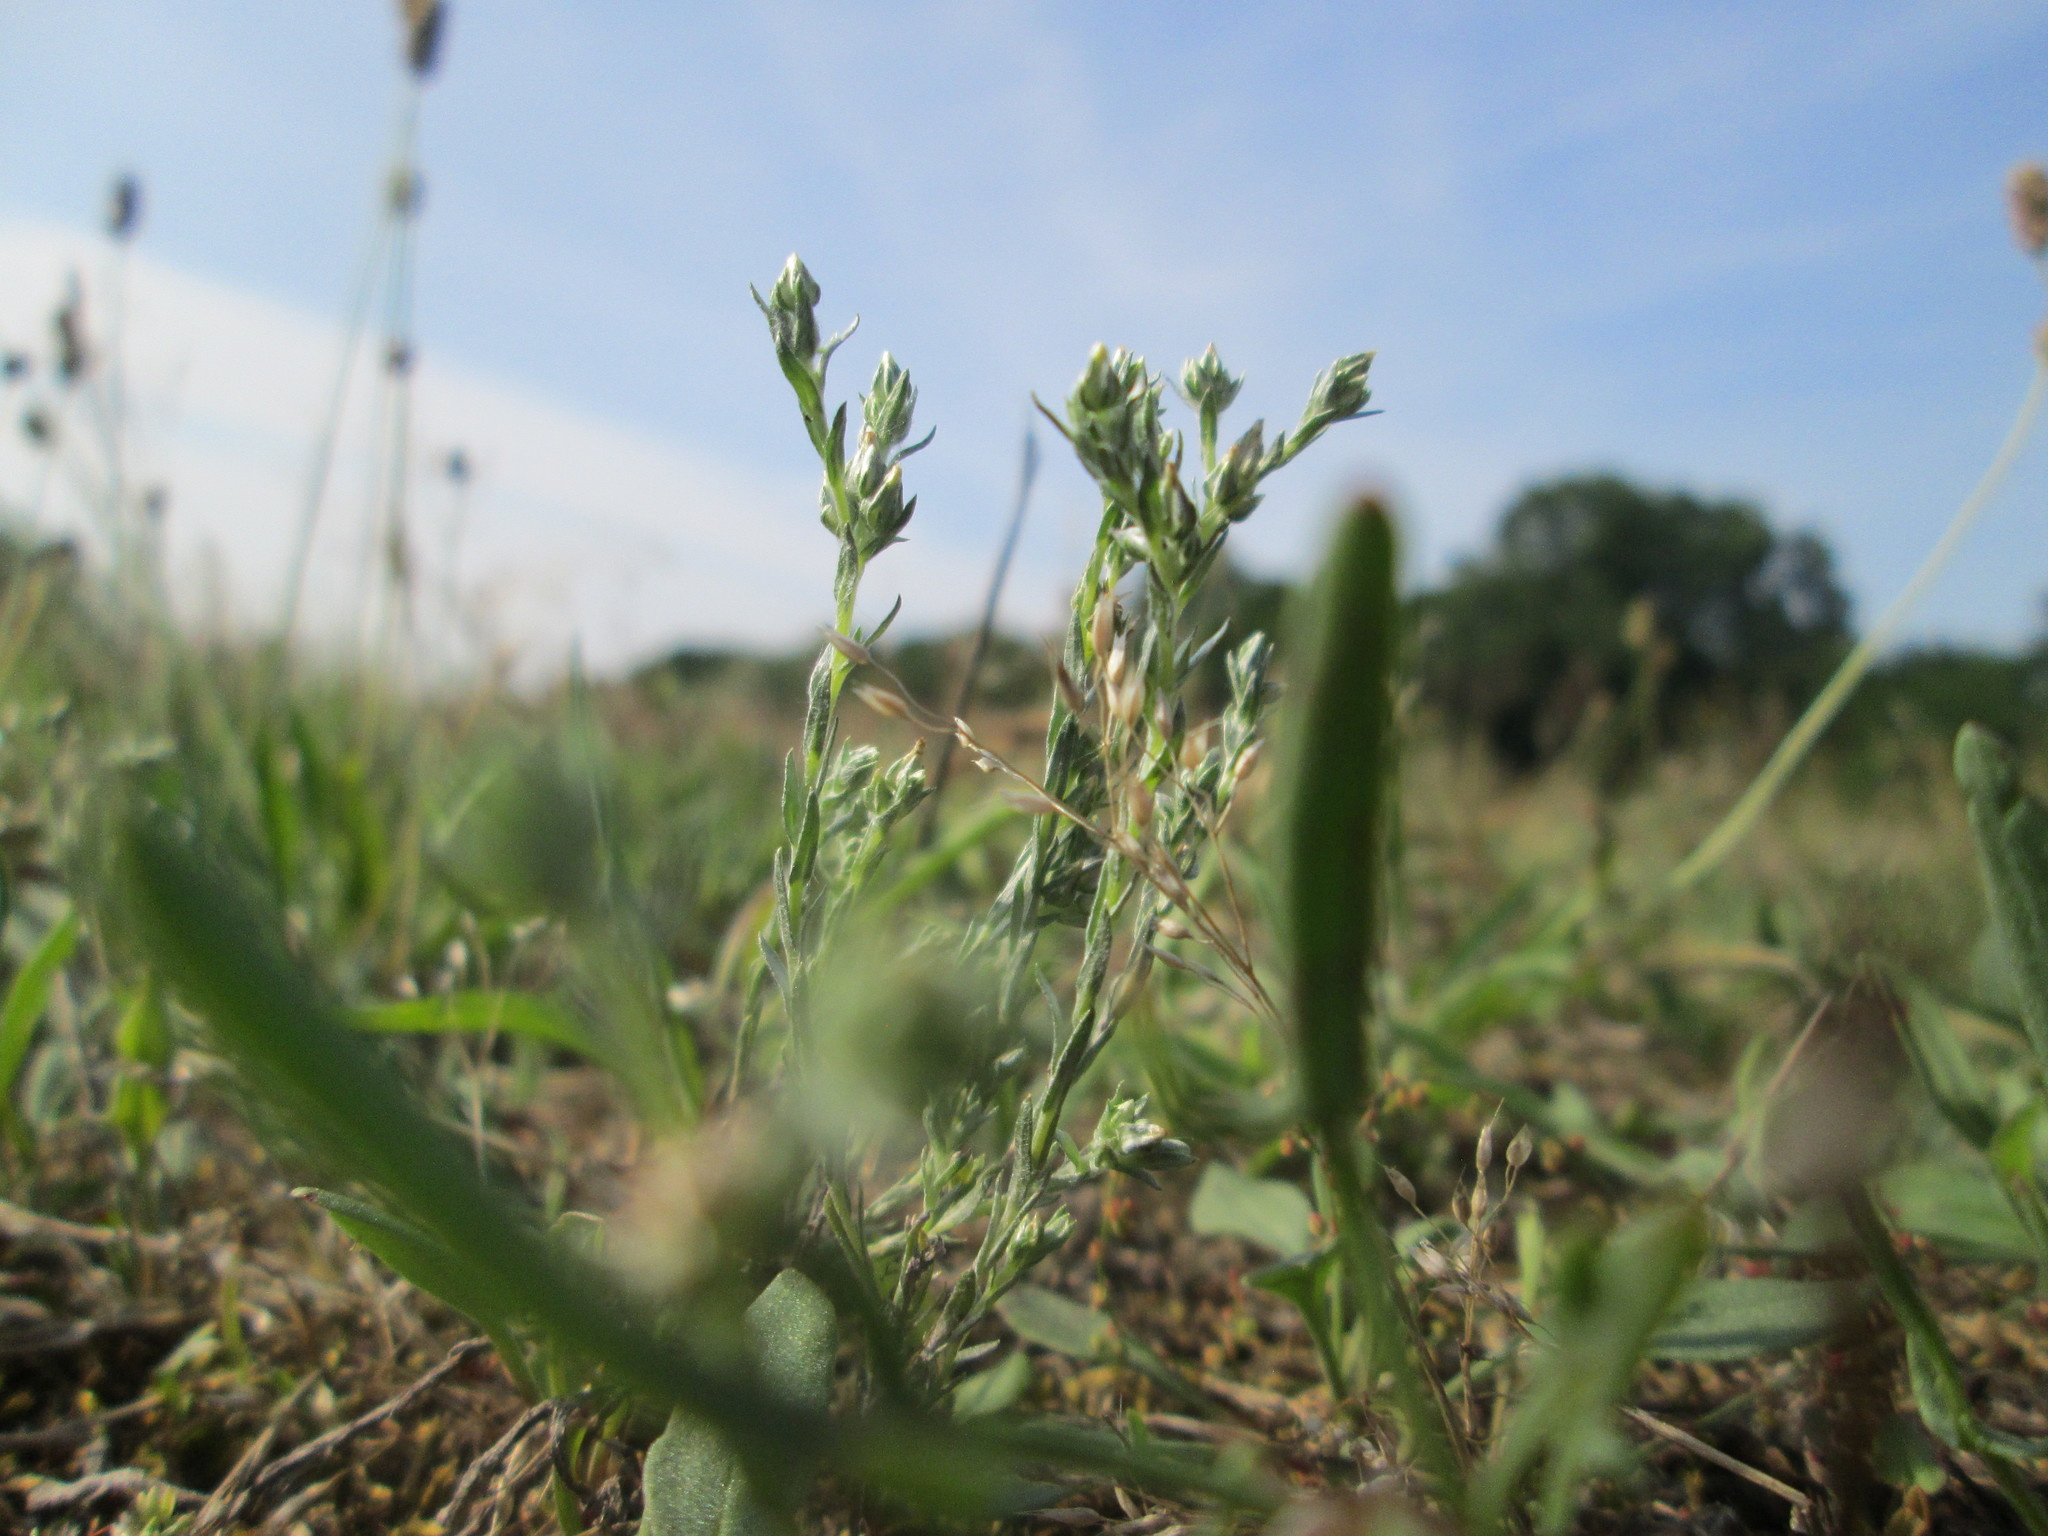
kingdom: Plantae
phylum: Tracheophyta
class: Magnoliopsida
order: Asterales
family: Asteraceae
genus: Logfia
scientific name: Logfia minima
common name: Little cottonrose
